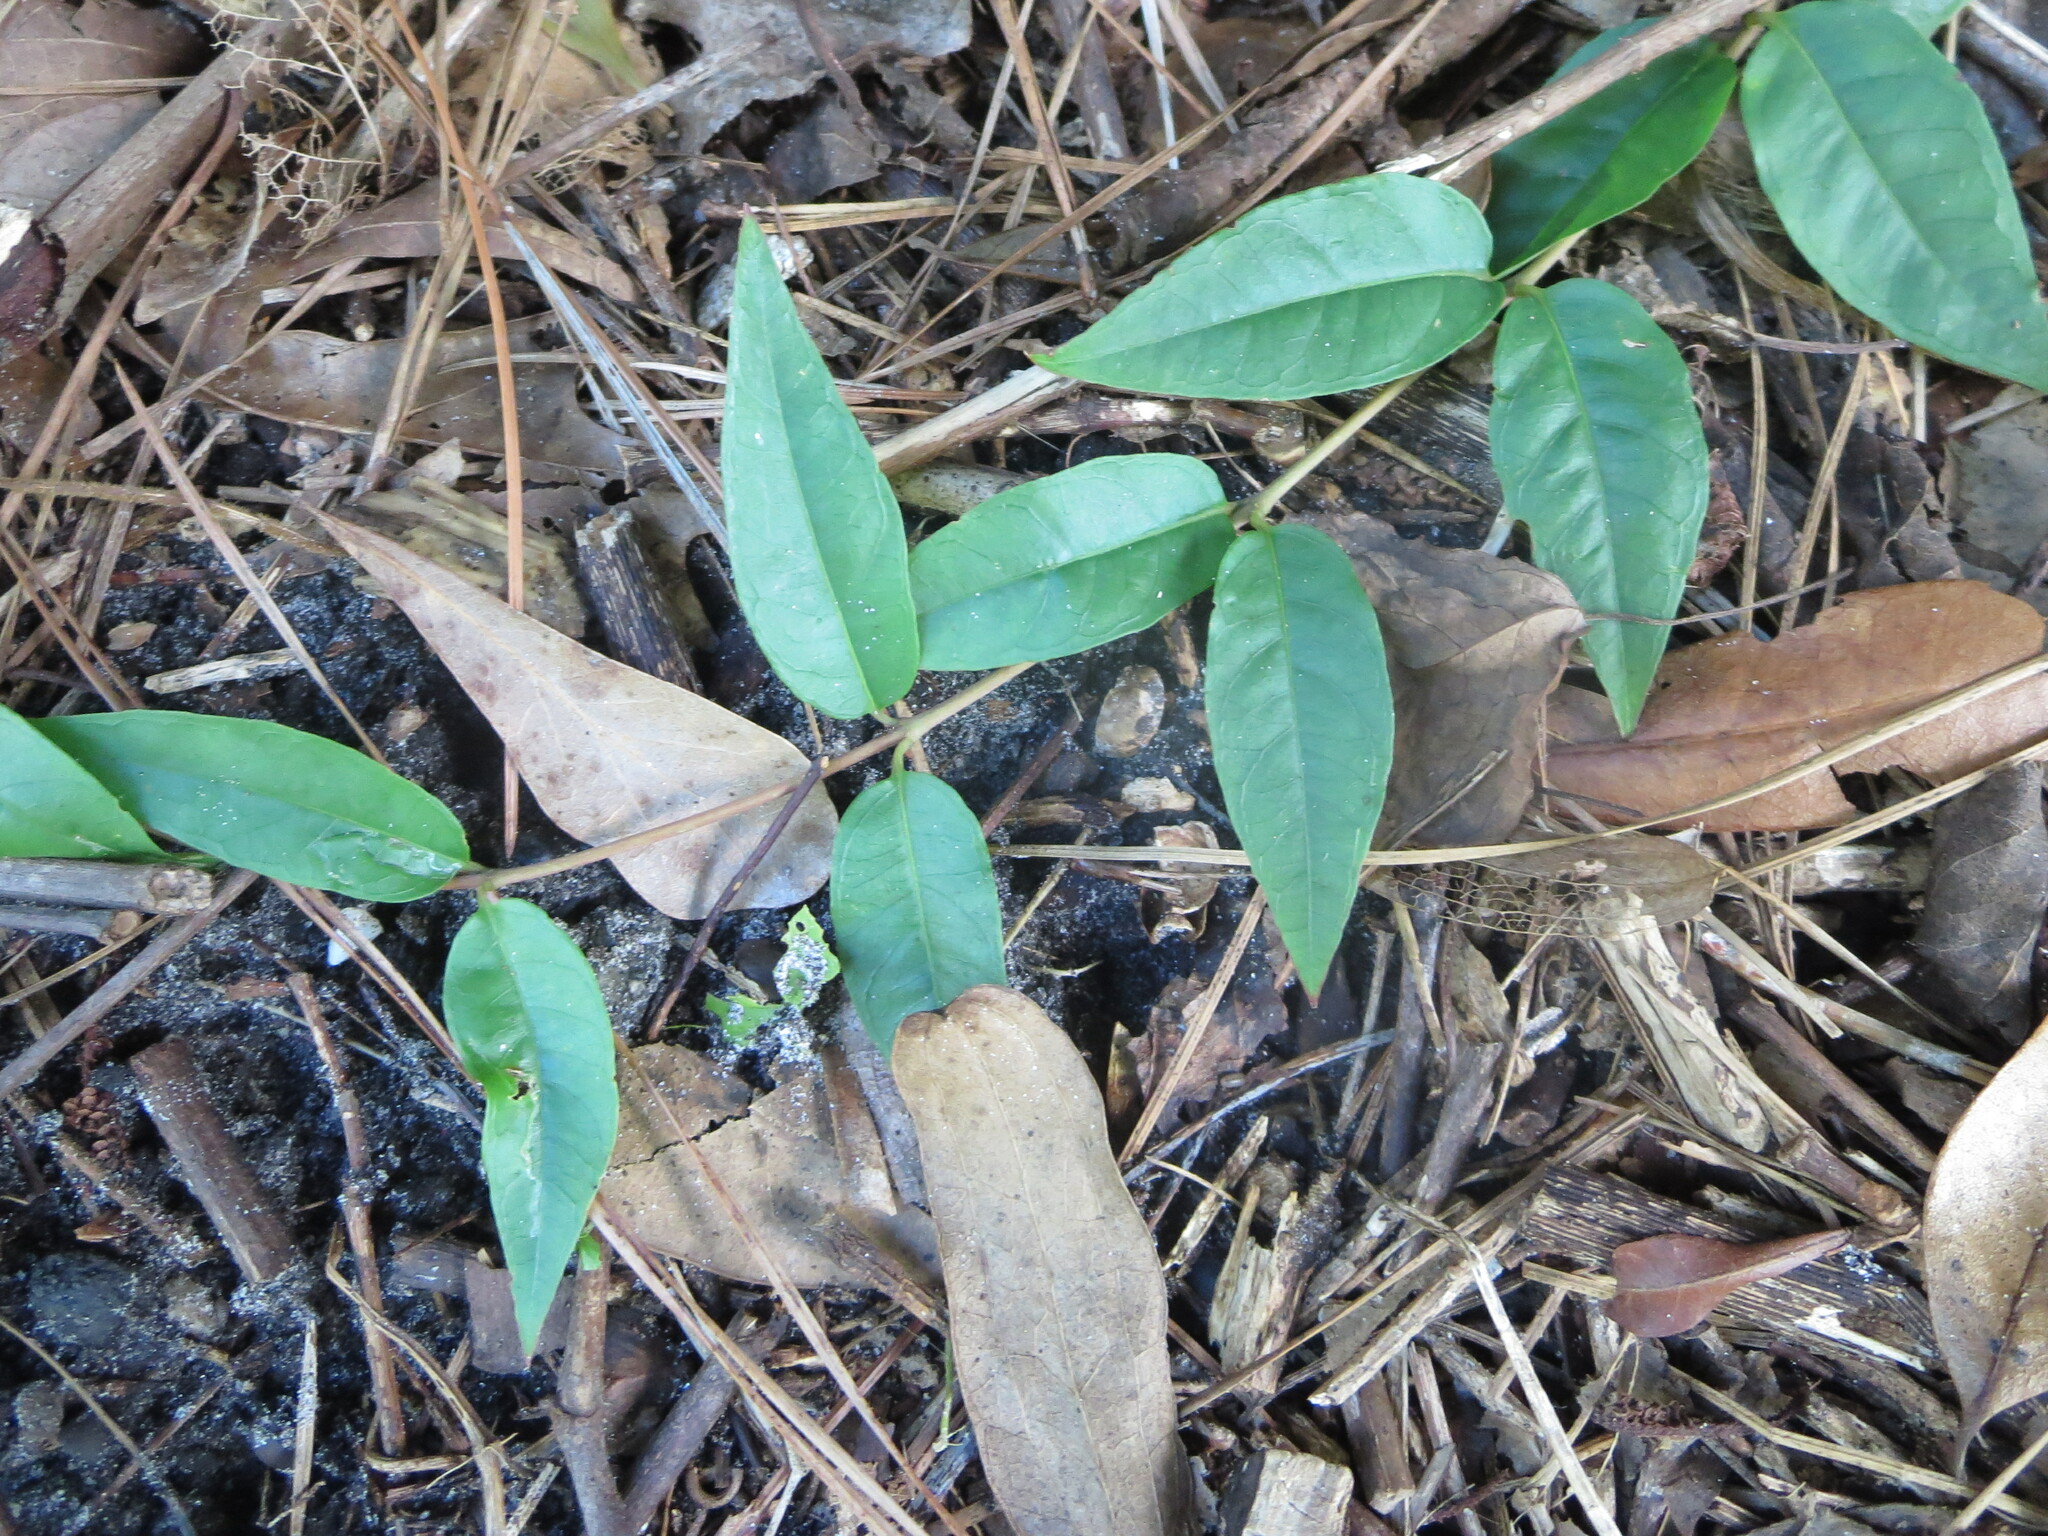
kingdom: Plantae
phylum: Tracheophyta
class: Magnoliopsida
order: Gentianales
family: Gelsemiaceae
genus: Gelsemium
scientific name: Gelsemium sempervirens
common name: Carolina-jasmine
